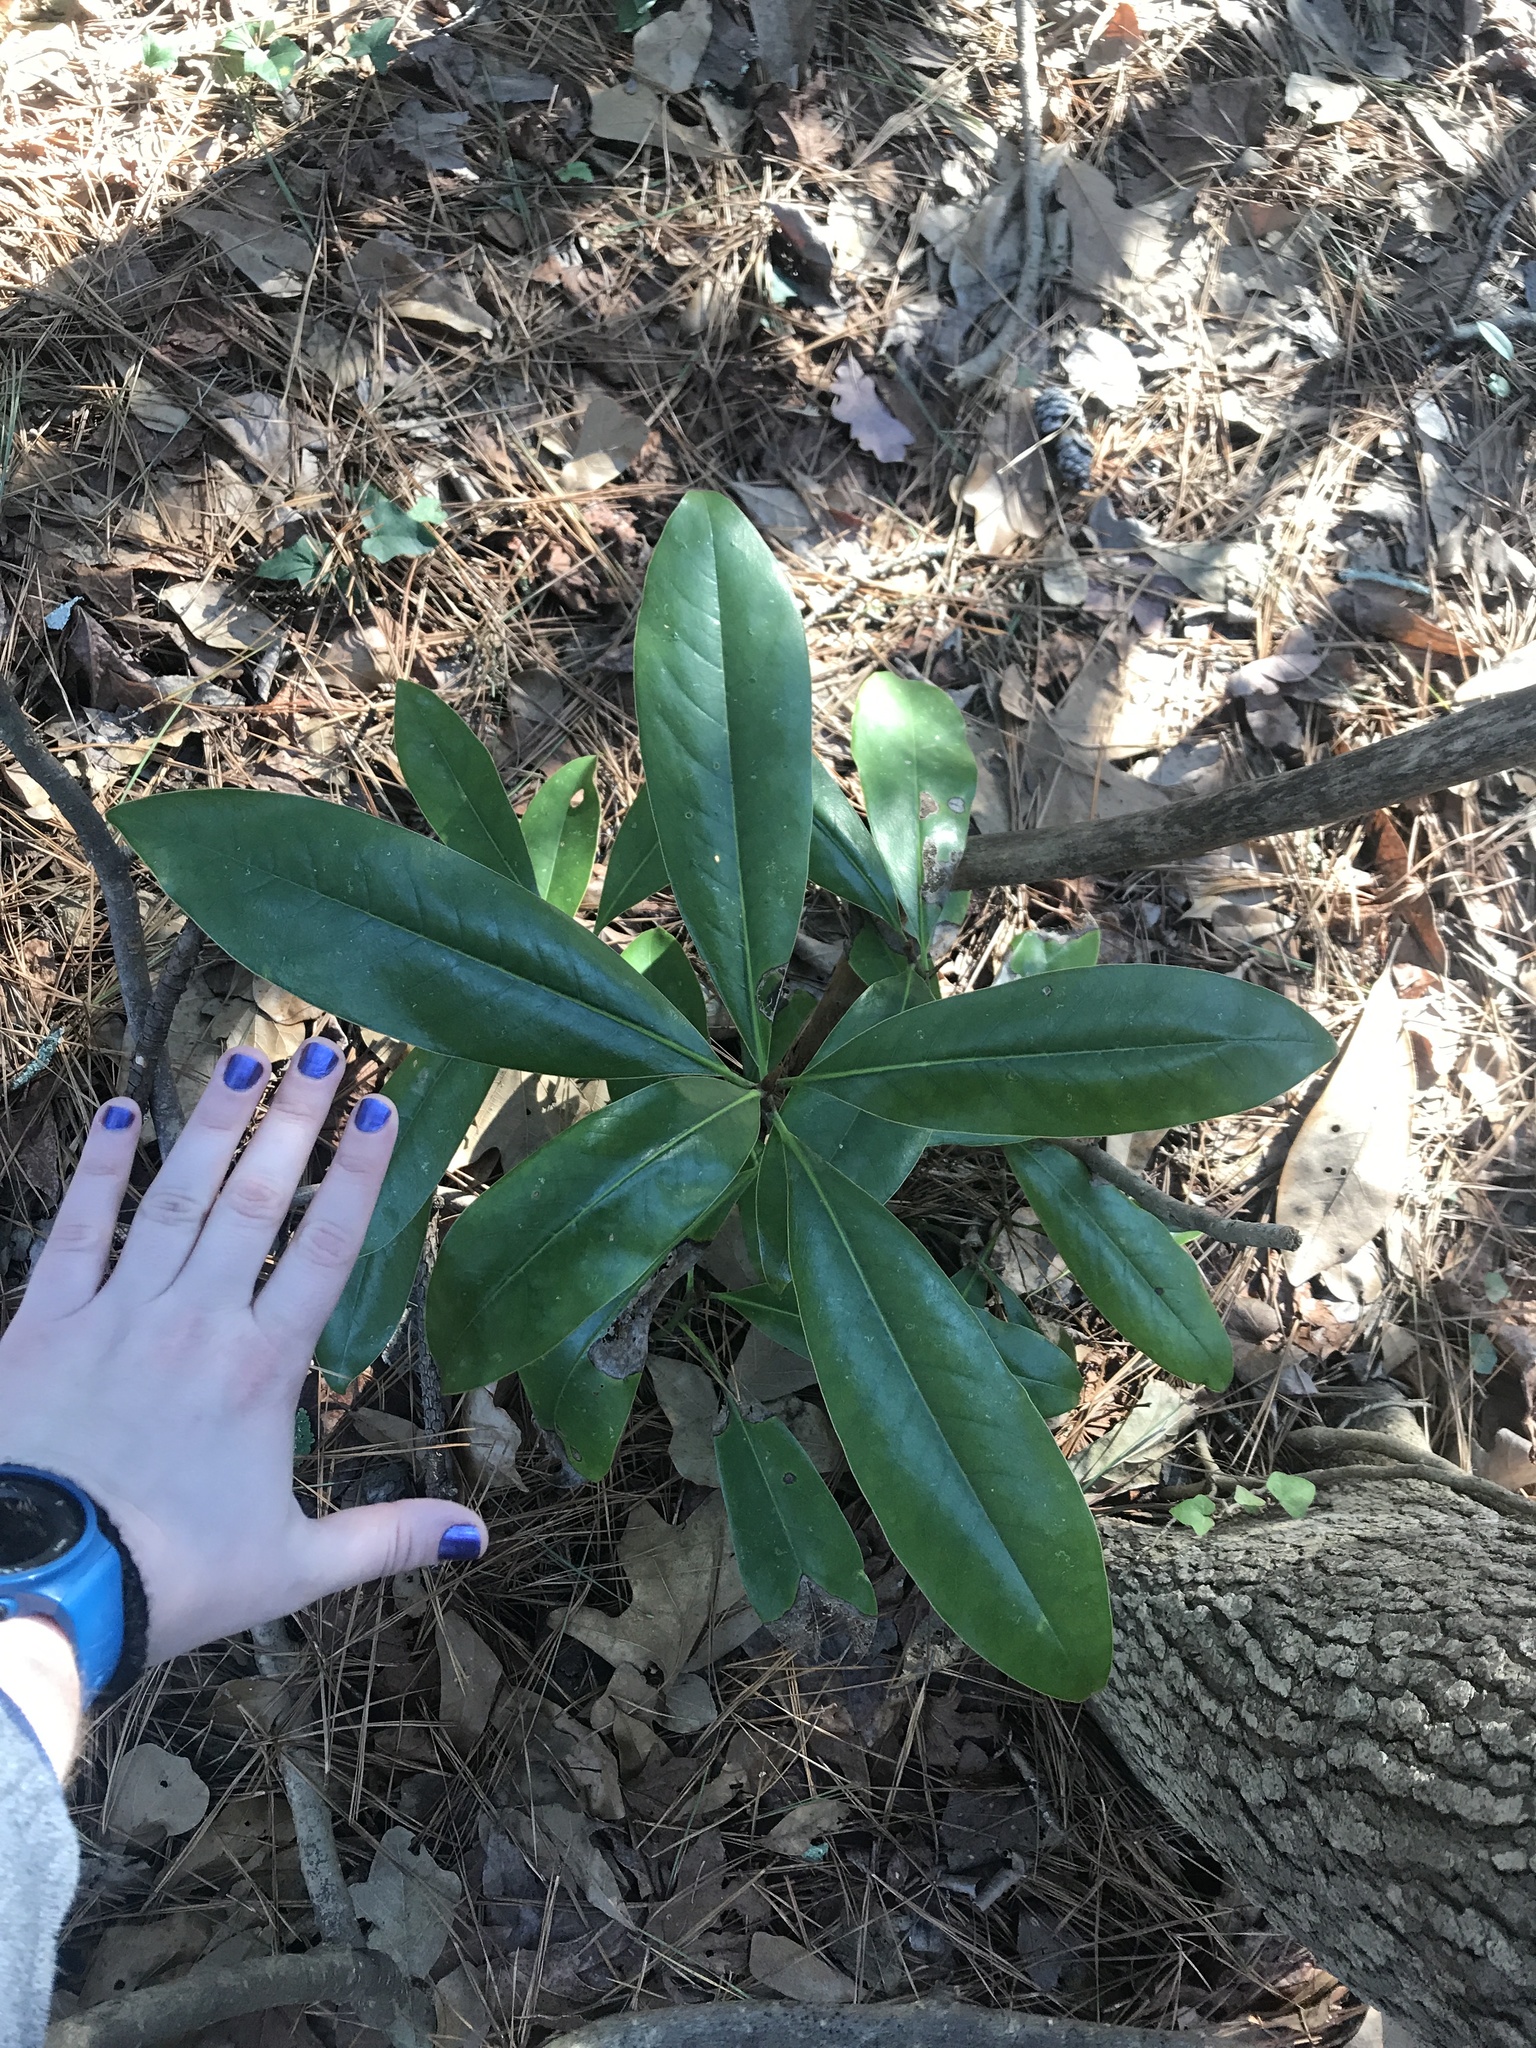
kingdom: Plantae
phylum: Tracheophyta
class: Magnoliopsida
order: Magnoliales
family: Magnoliaceae
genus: Magnolia
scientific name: Magnolia grandiflora
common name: Southern magnolia
